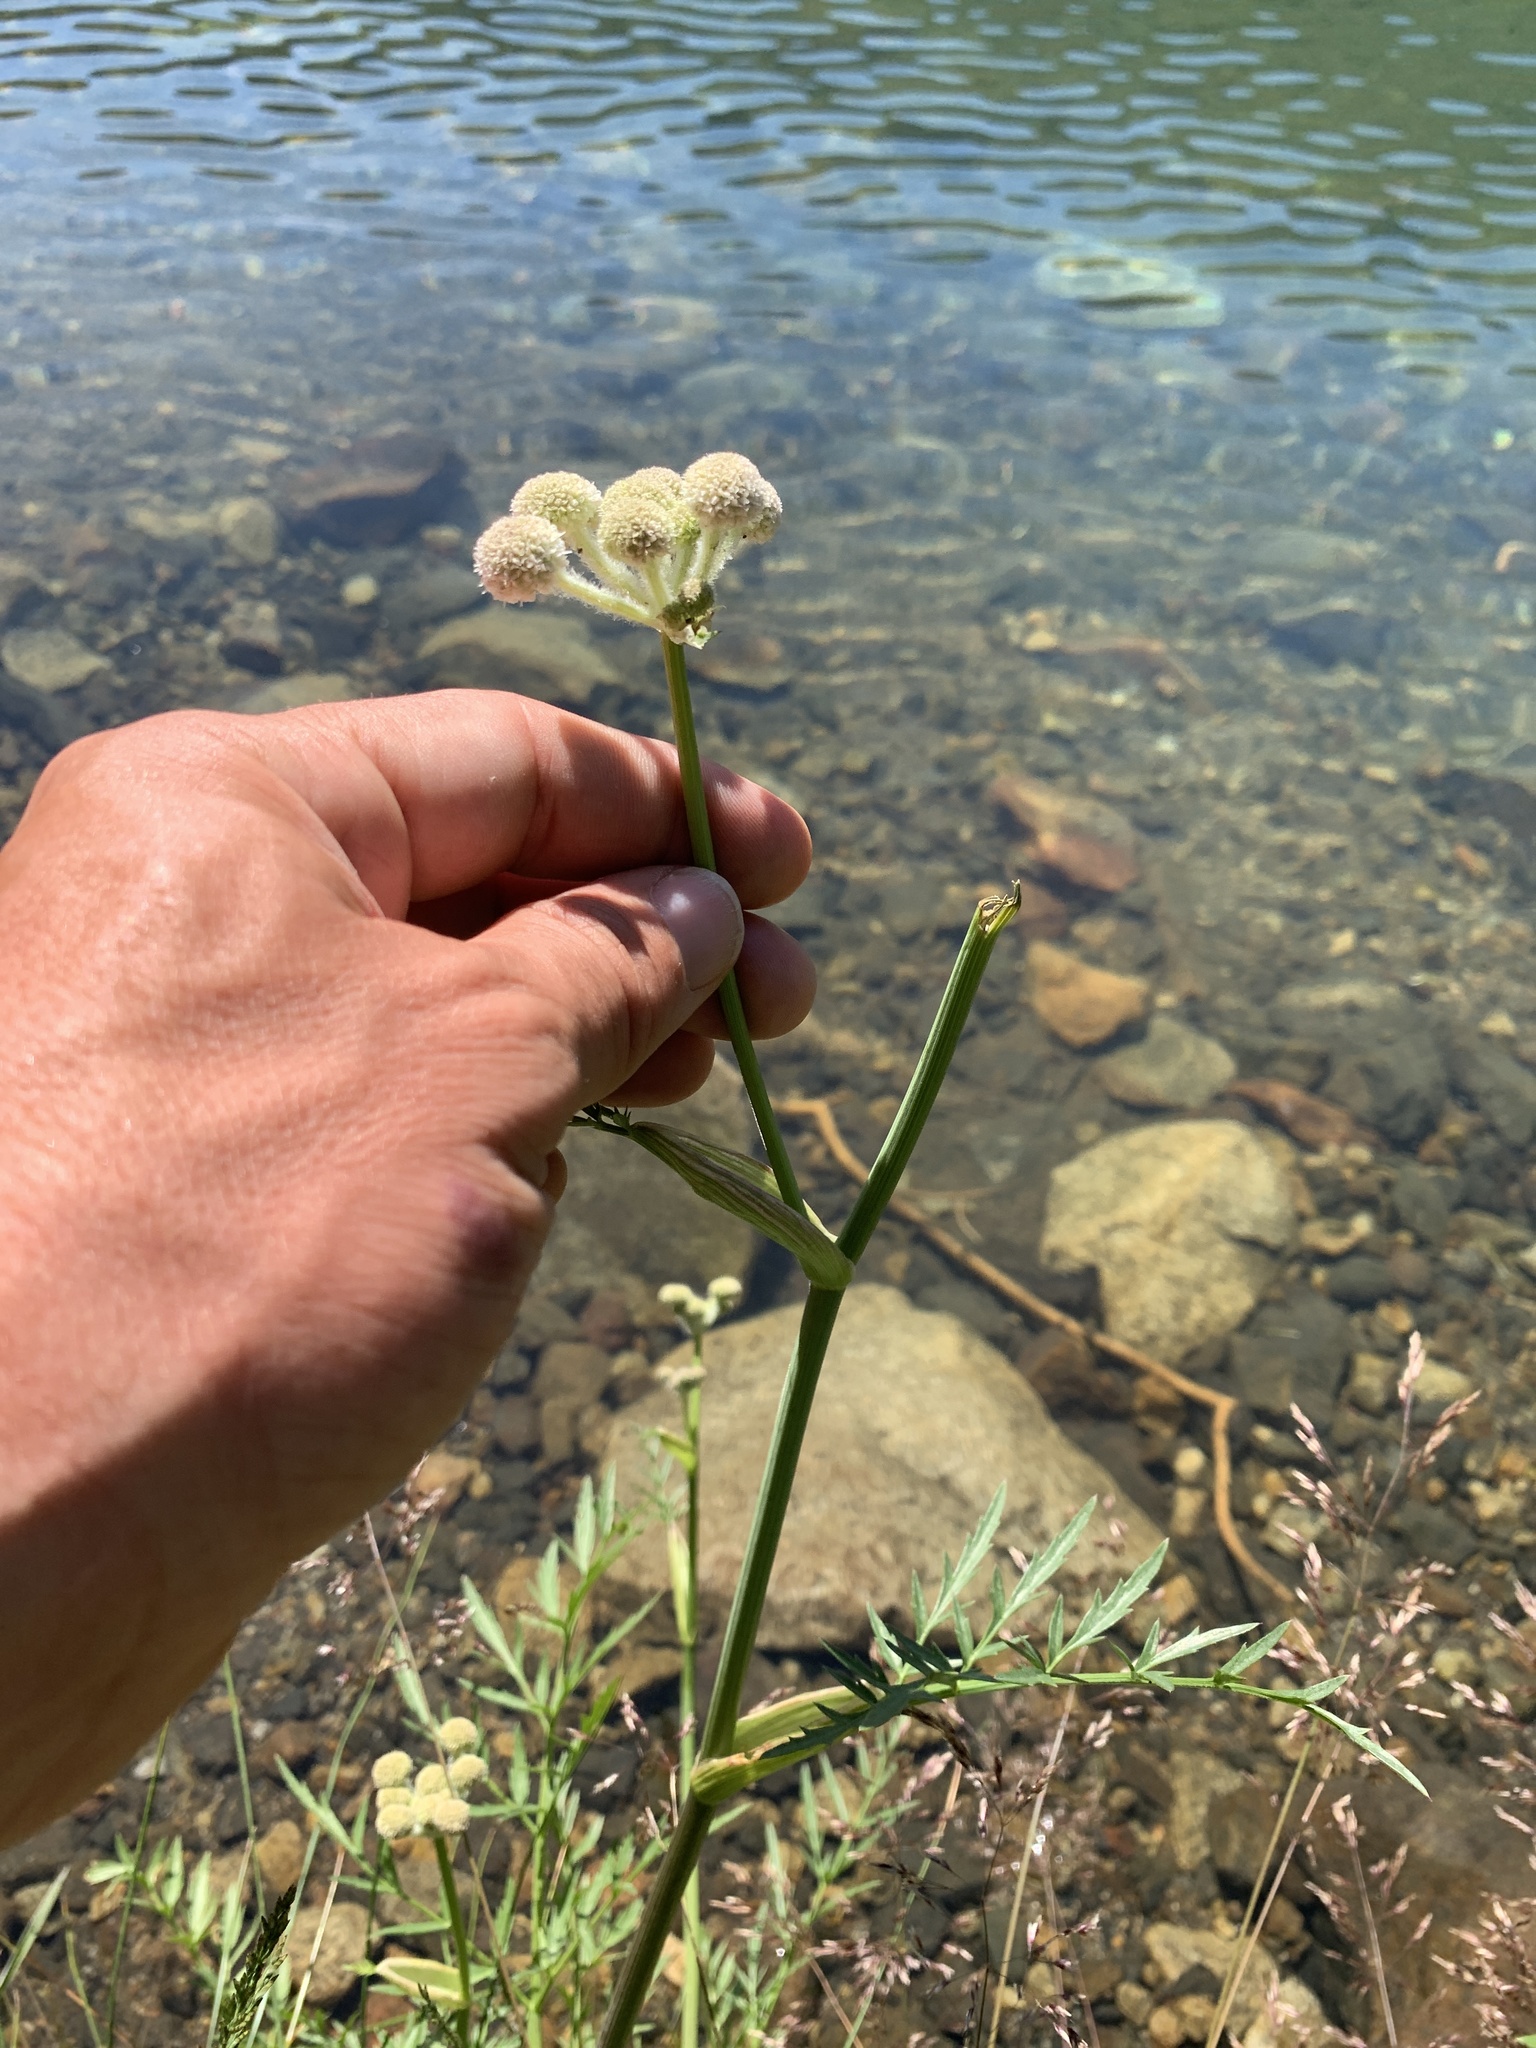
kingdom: Plantae
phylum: Tracheophyta
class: Magnoliopsida
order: Apiales
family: Apiaceae
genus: Angelica
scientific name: Angelica capitellata
